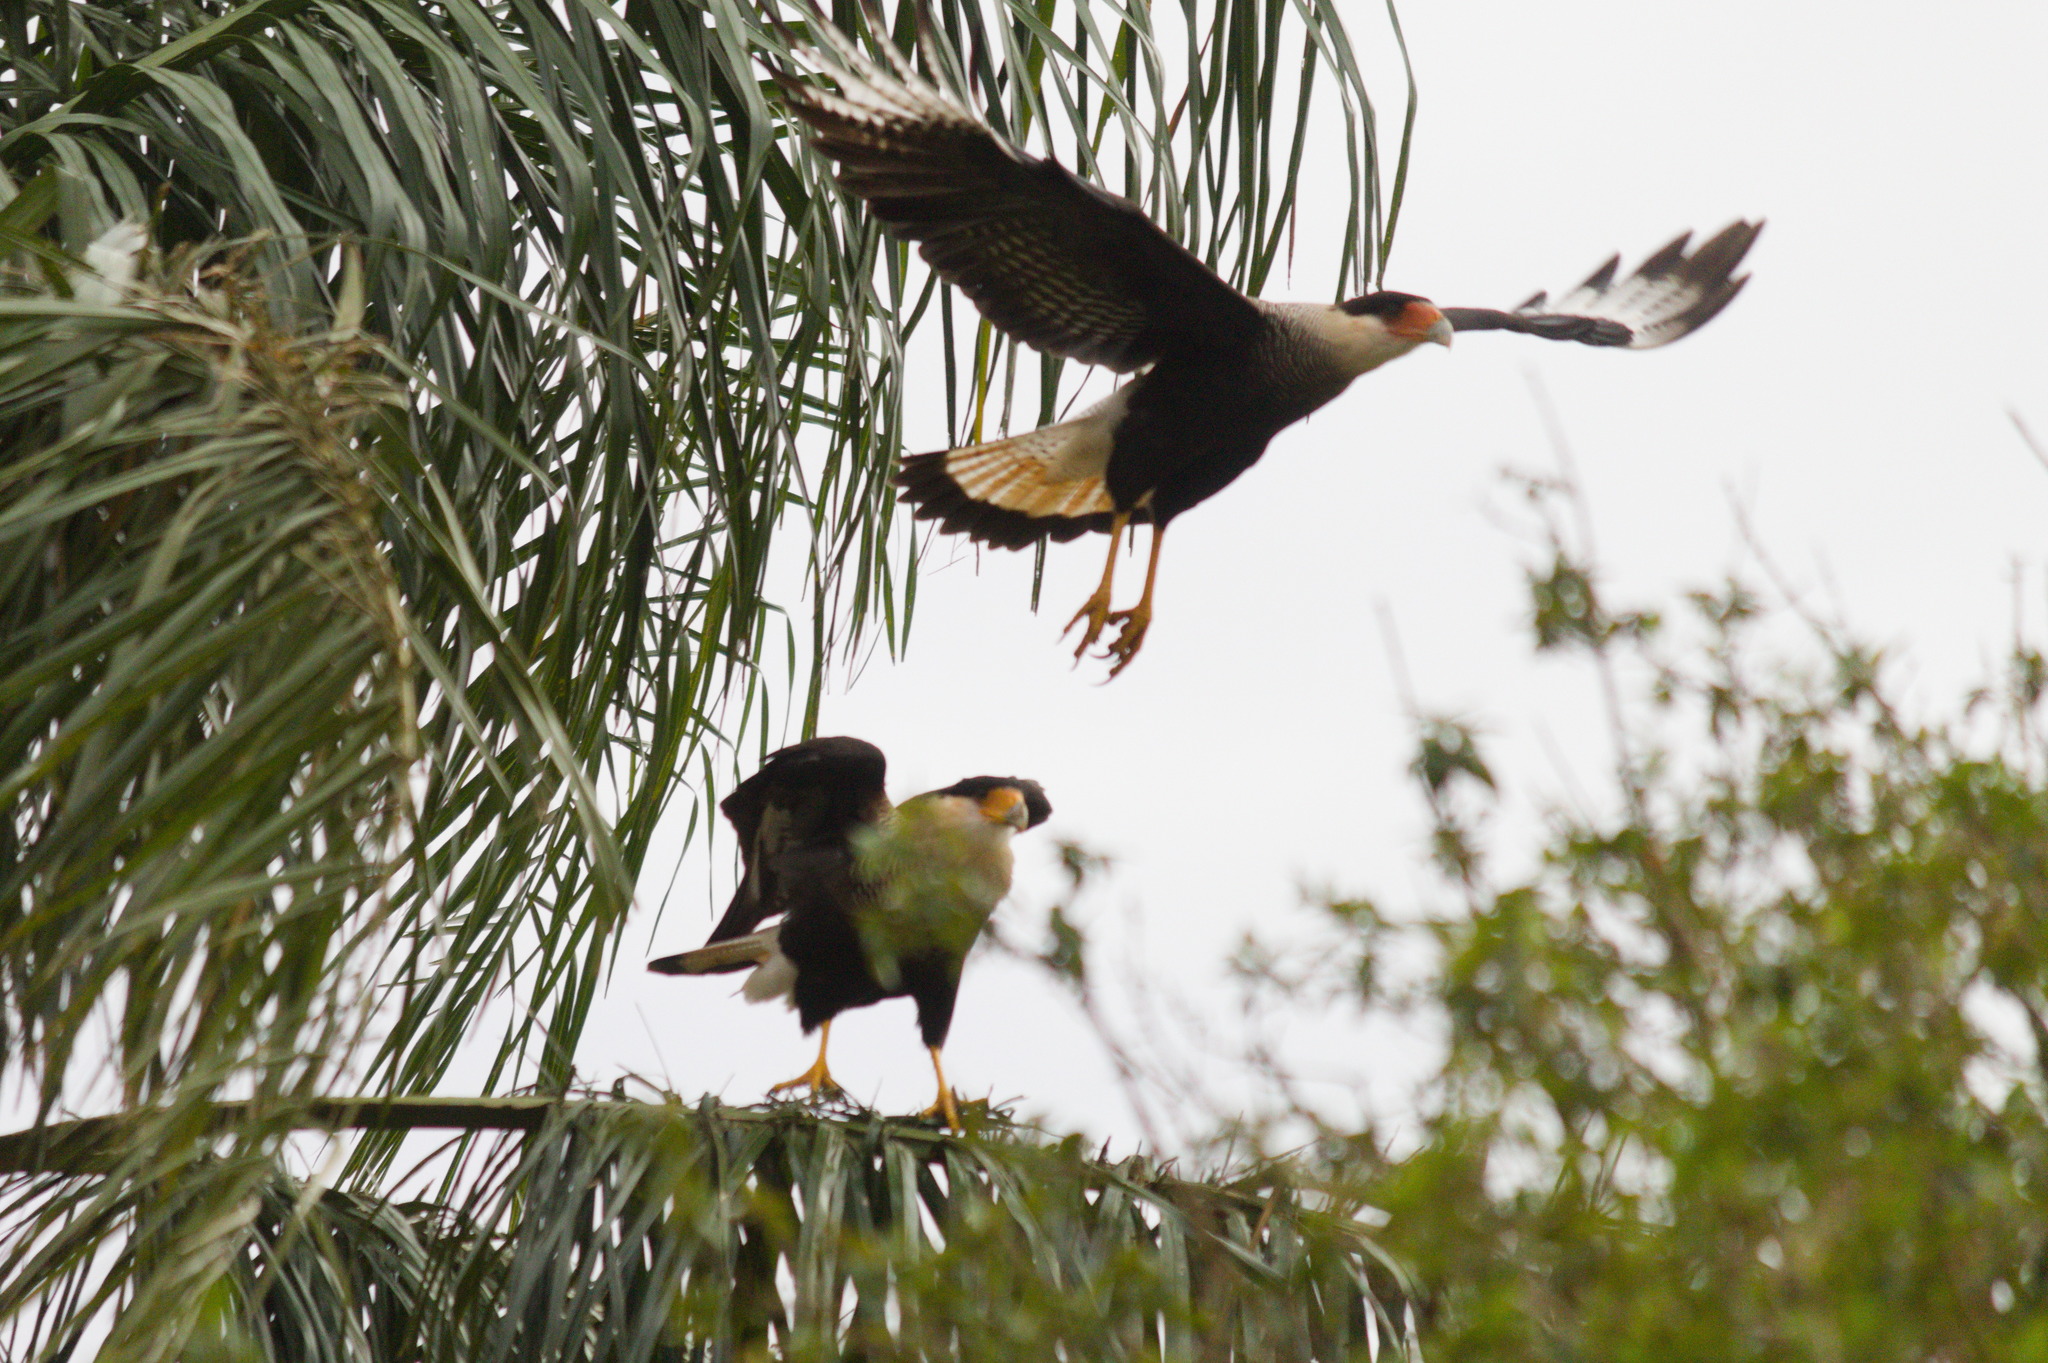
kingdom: Animalia
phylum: Chordata
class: Aves
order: Falconiformes
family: Falconidae
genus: Caracara
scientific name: Caracara plancus
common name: Southern caracara
